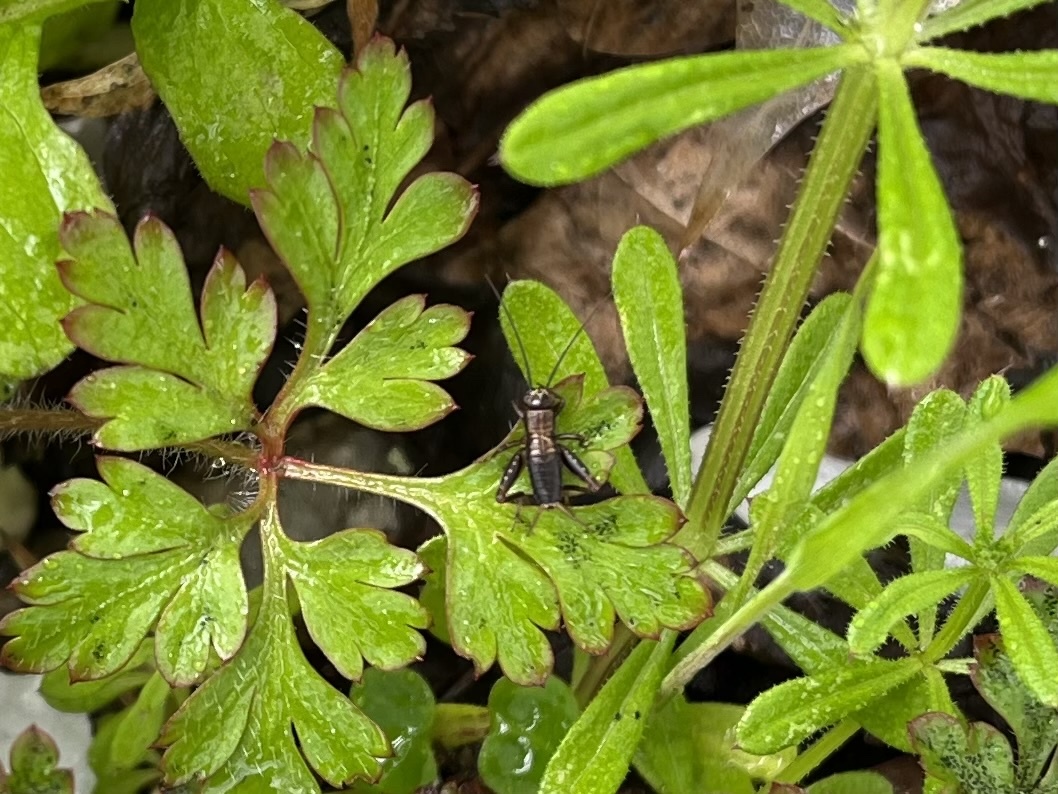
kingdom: Animalia
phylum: Arthropoda
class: Insecta
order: Orthoptera
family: Trigonidiidae
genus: Nemobius
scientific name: Nemobius sylvestris
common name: Wood-cricket
